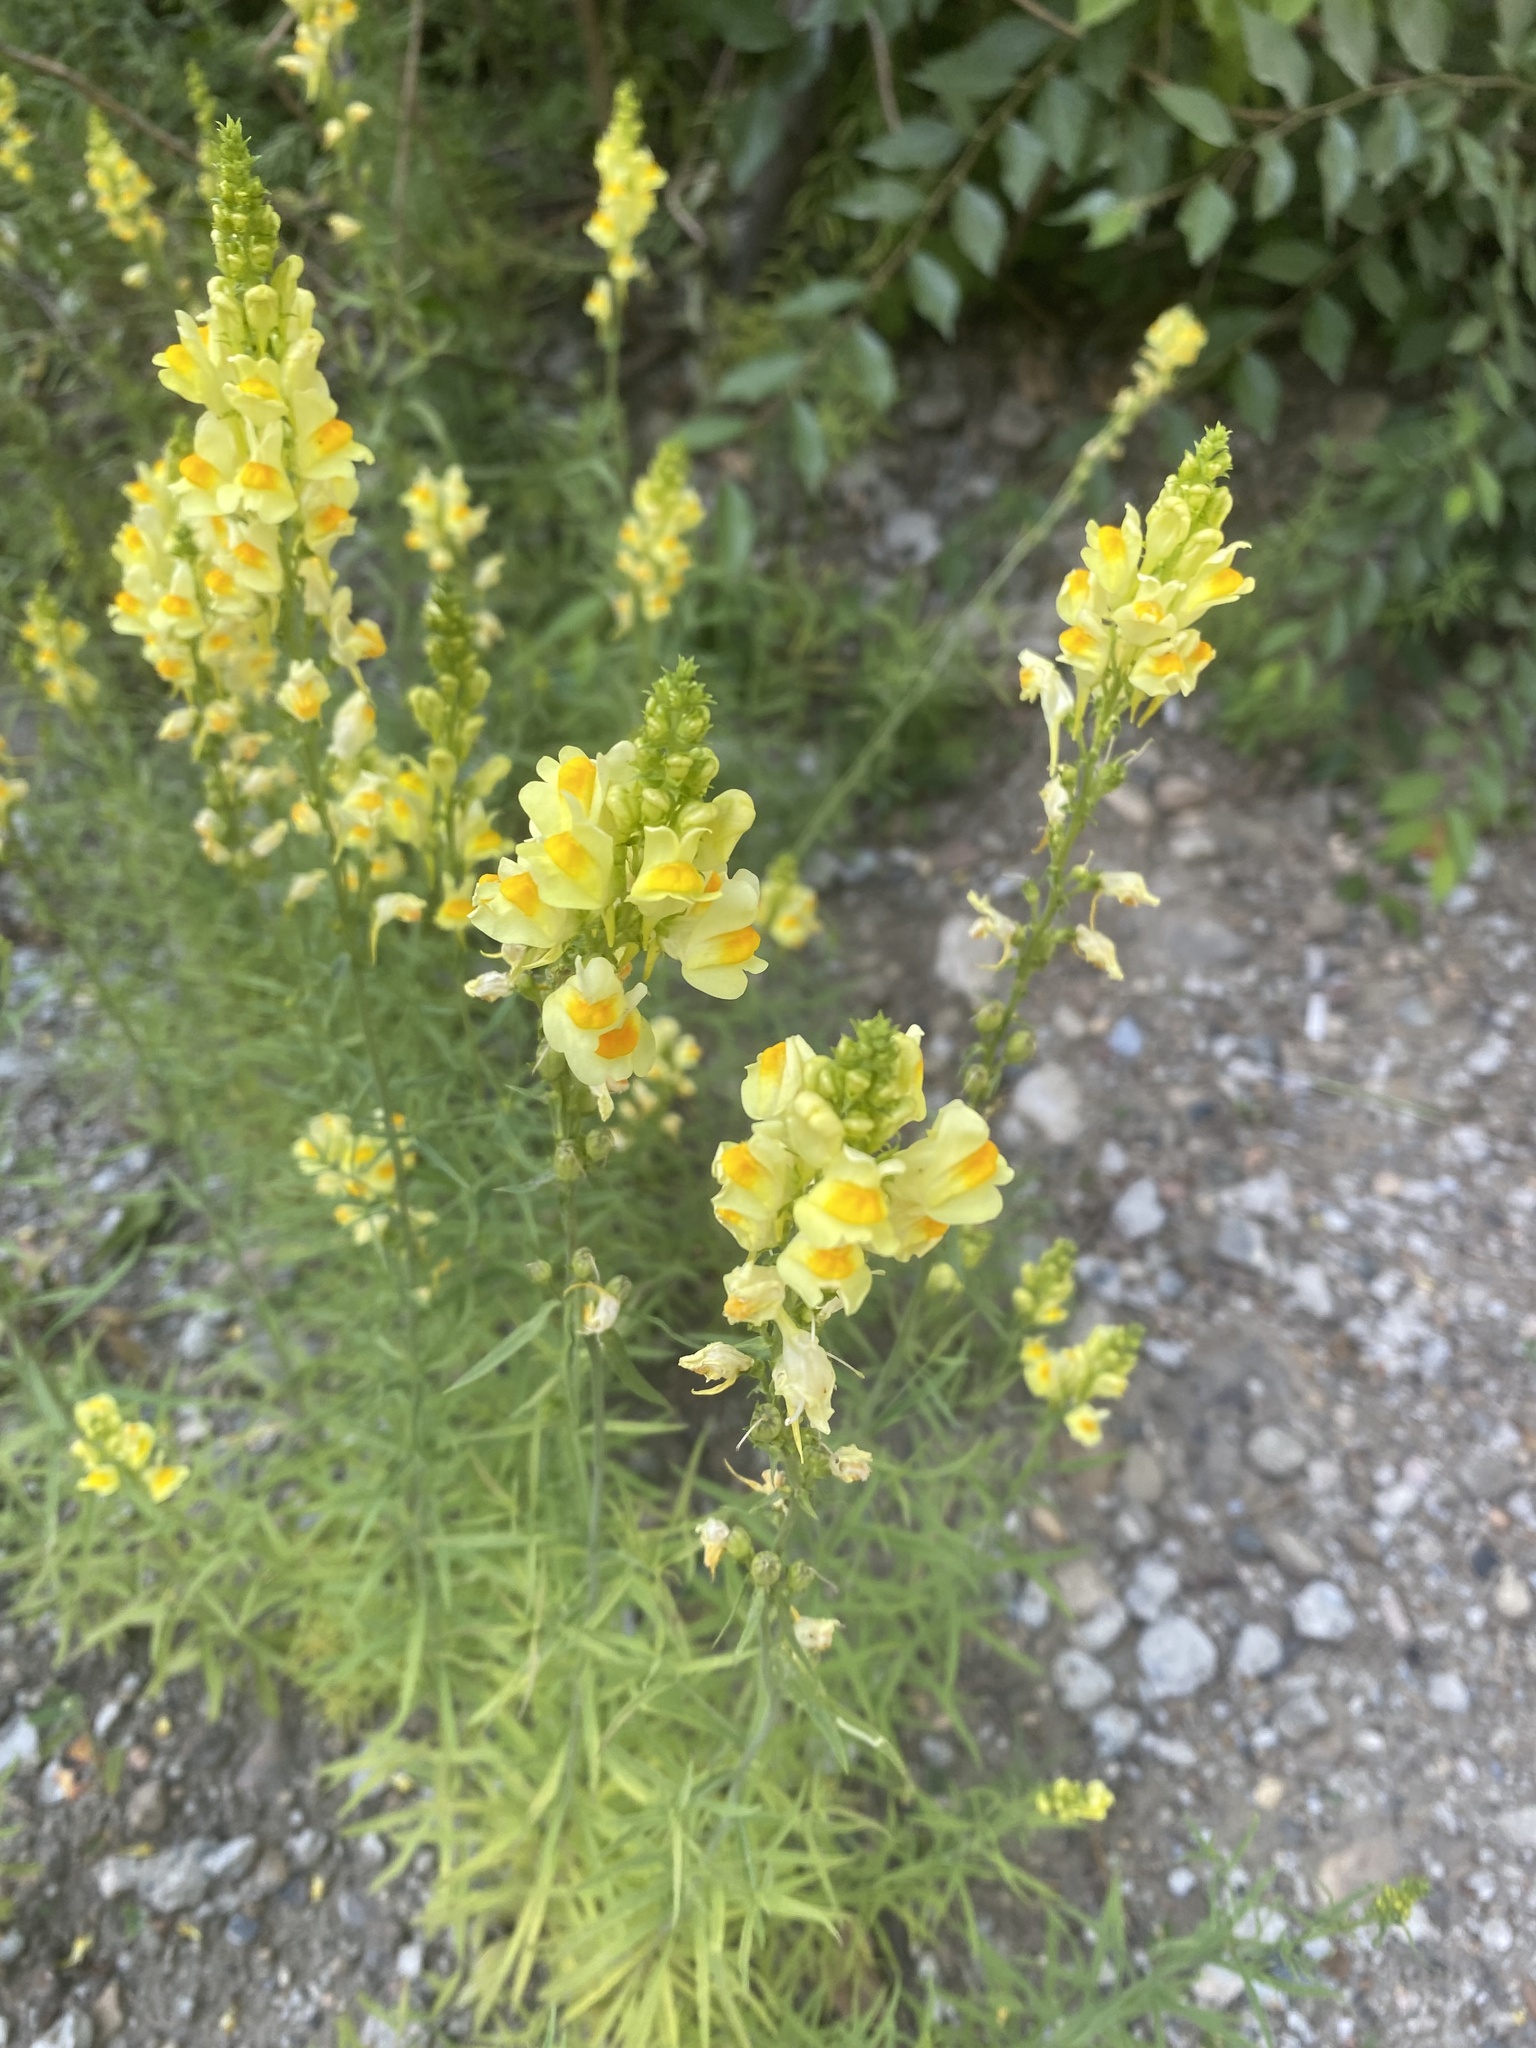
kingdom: Plantae
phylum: Tracheophyta
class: Magnoliopsida
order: Lamiales
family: Plantaginaceae
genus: Linaria
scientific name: Linaria vulgaris
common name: Butter and eggs
